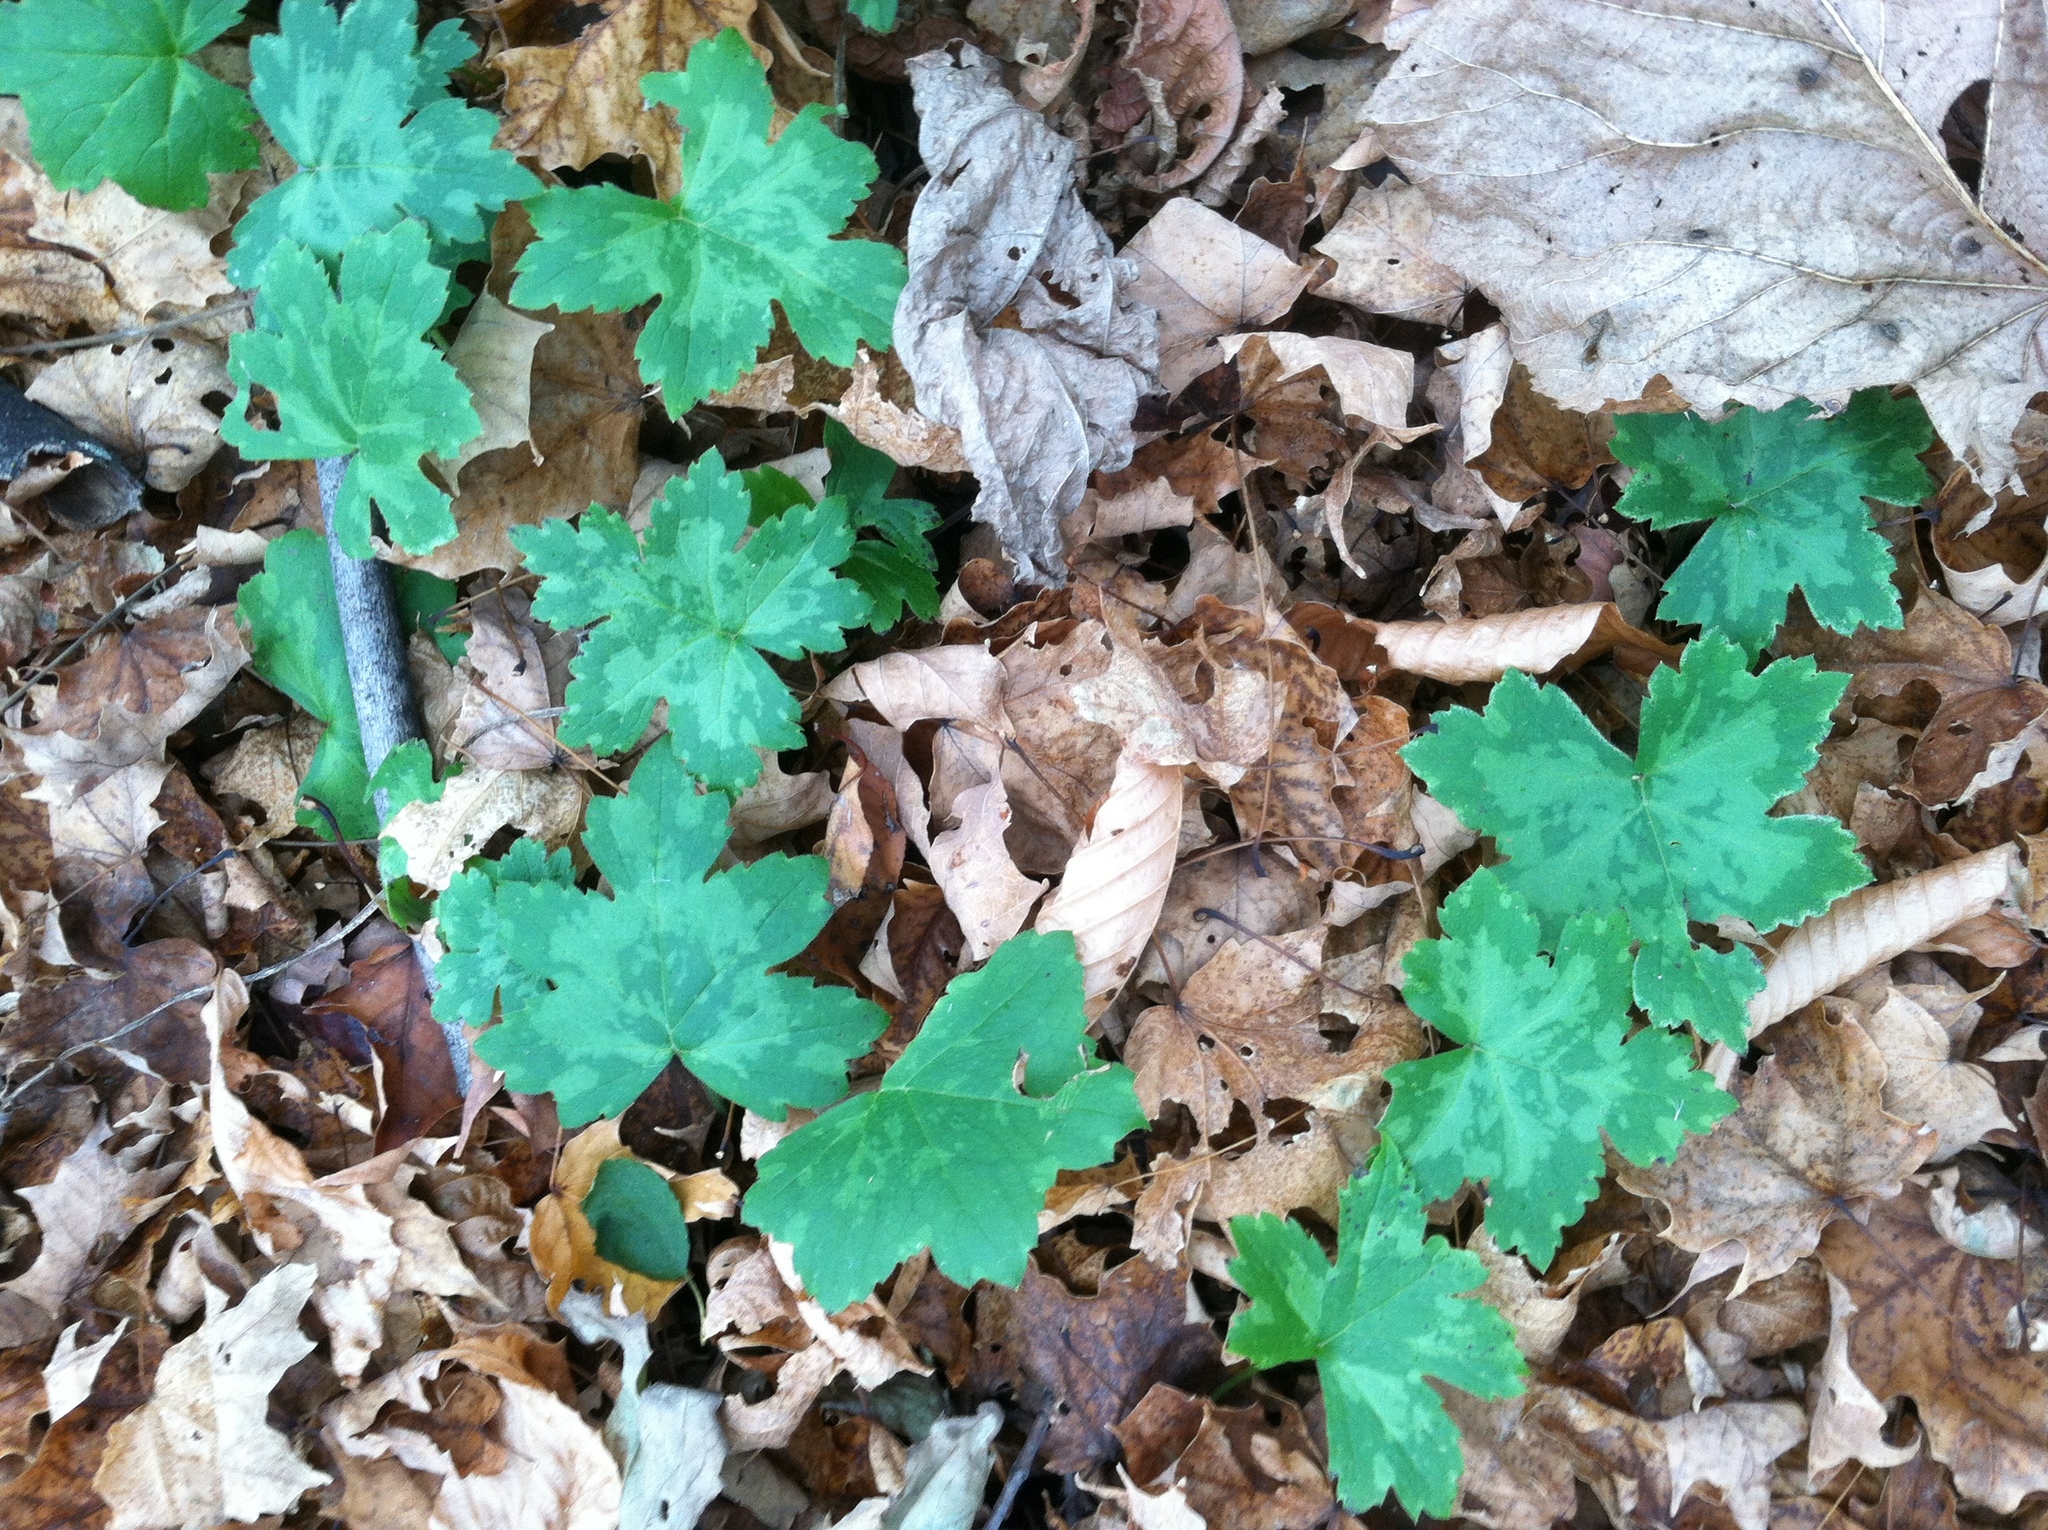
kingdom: Plantae
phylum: Tracheophyta
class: Magnoliopsida
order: Boraginales
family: Hydrophyllaceae
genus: Hydrophyllum
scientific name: Hydrophyllum canadense
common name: Canada waterleaf
